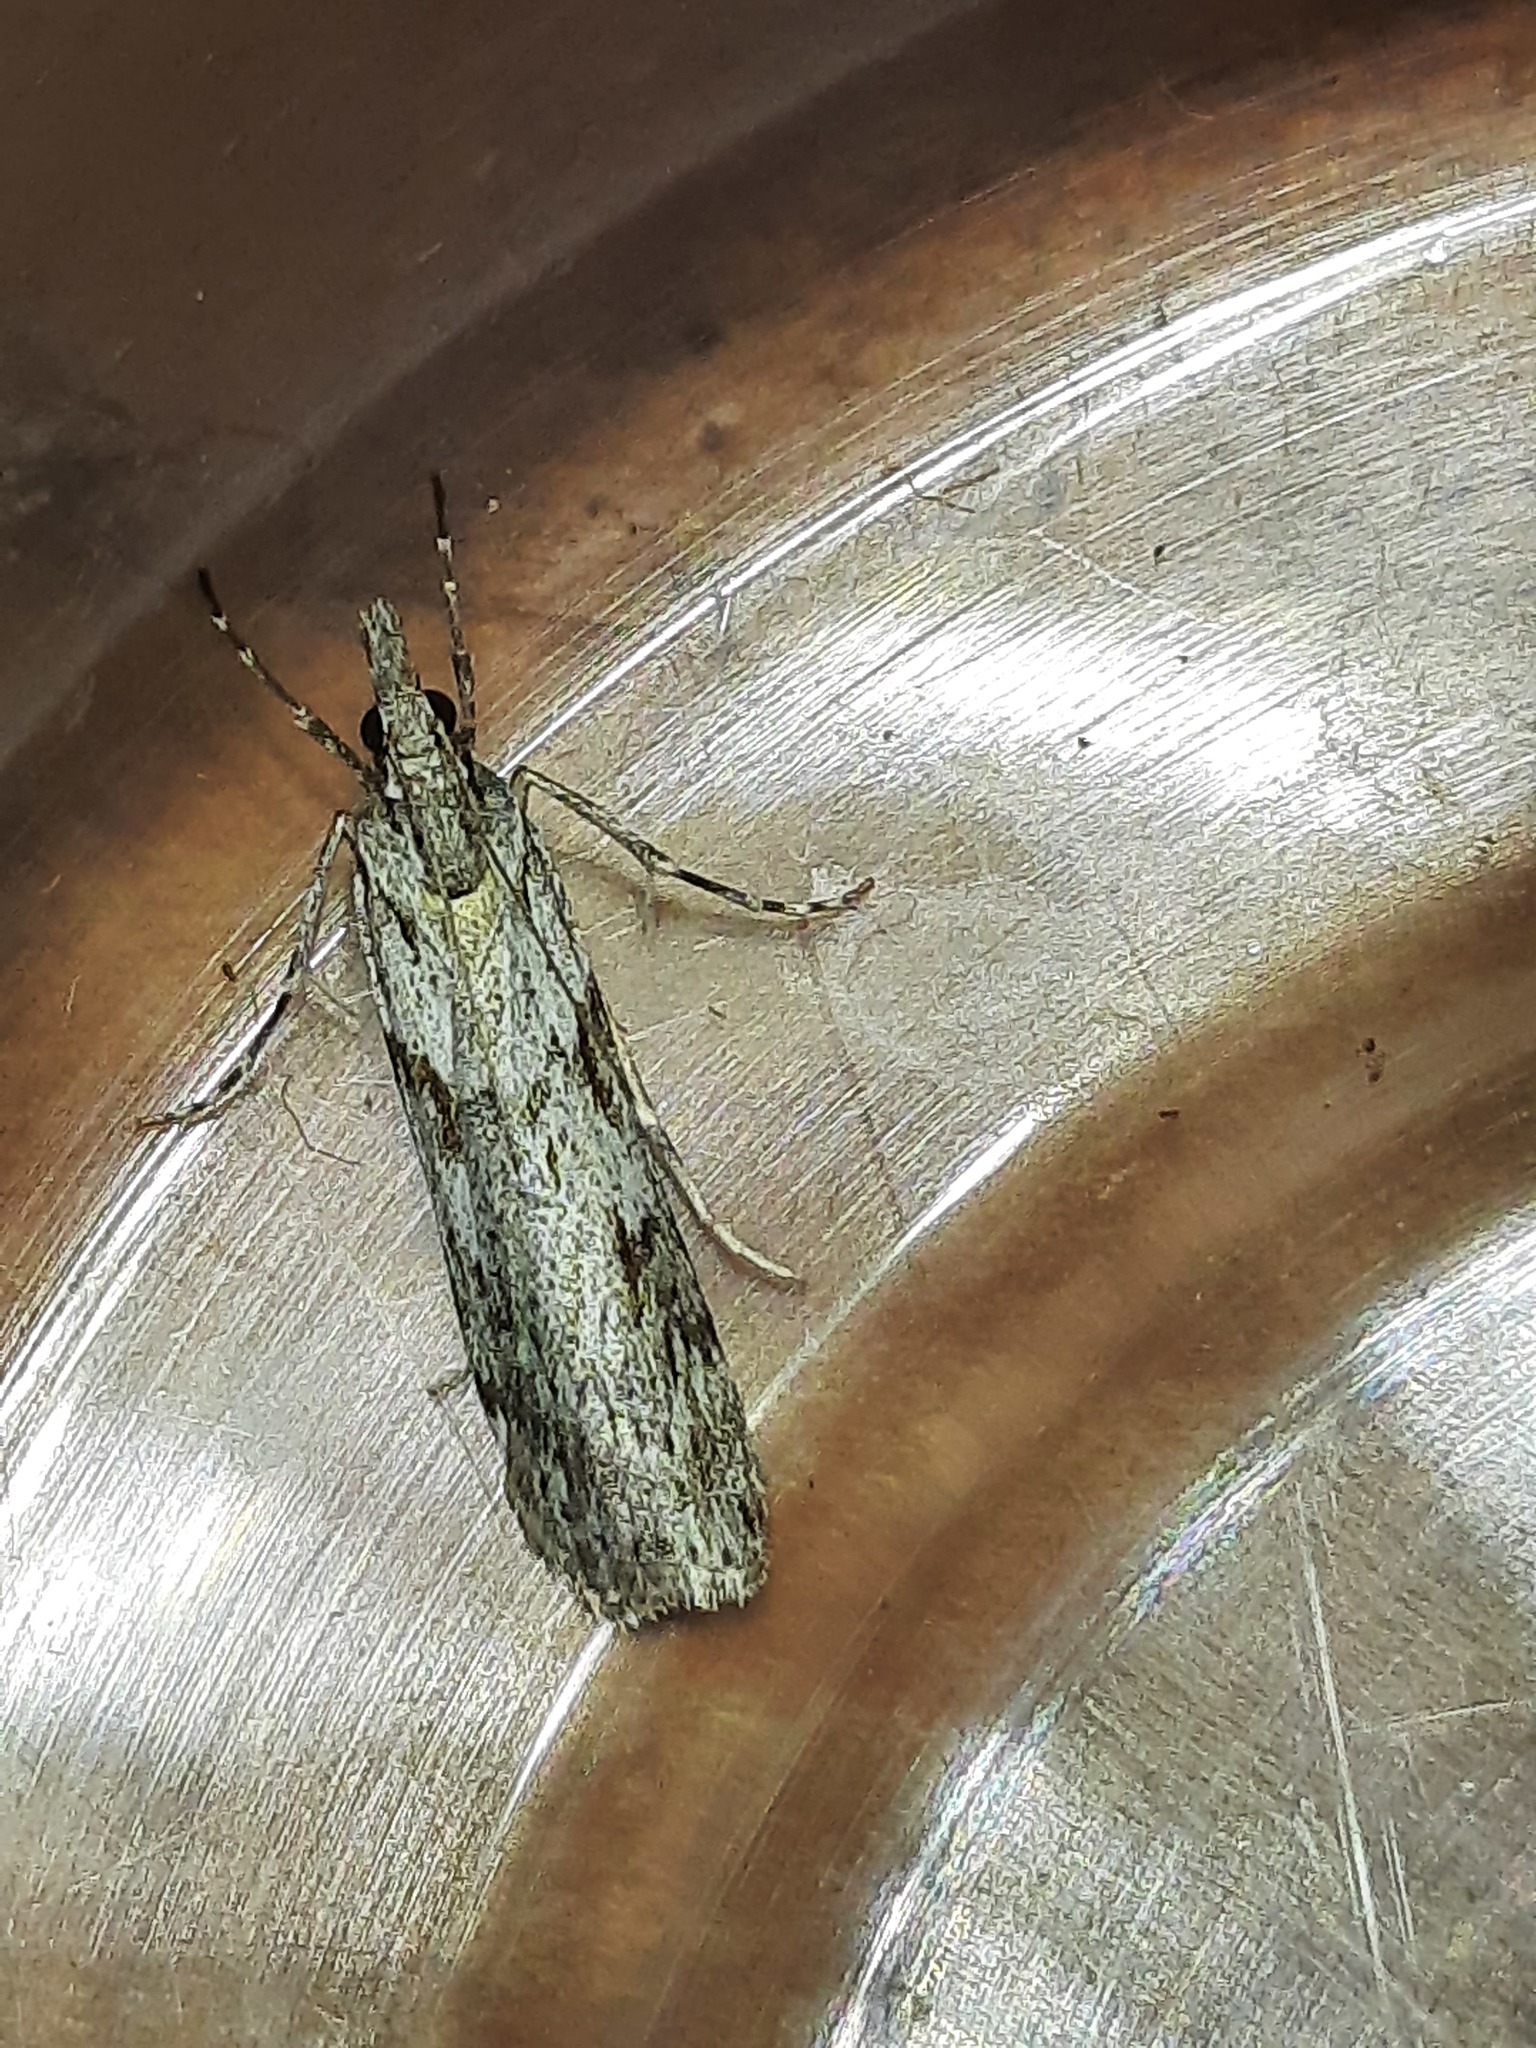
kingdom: Animalia
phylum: Arthropoda
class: Insecta
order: Lepidoptera
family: Crambidae
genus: Scoparia
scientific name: Scoparia halopis
